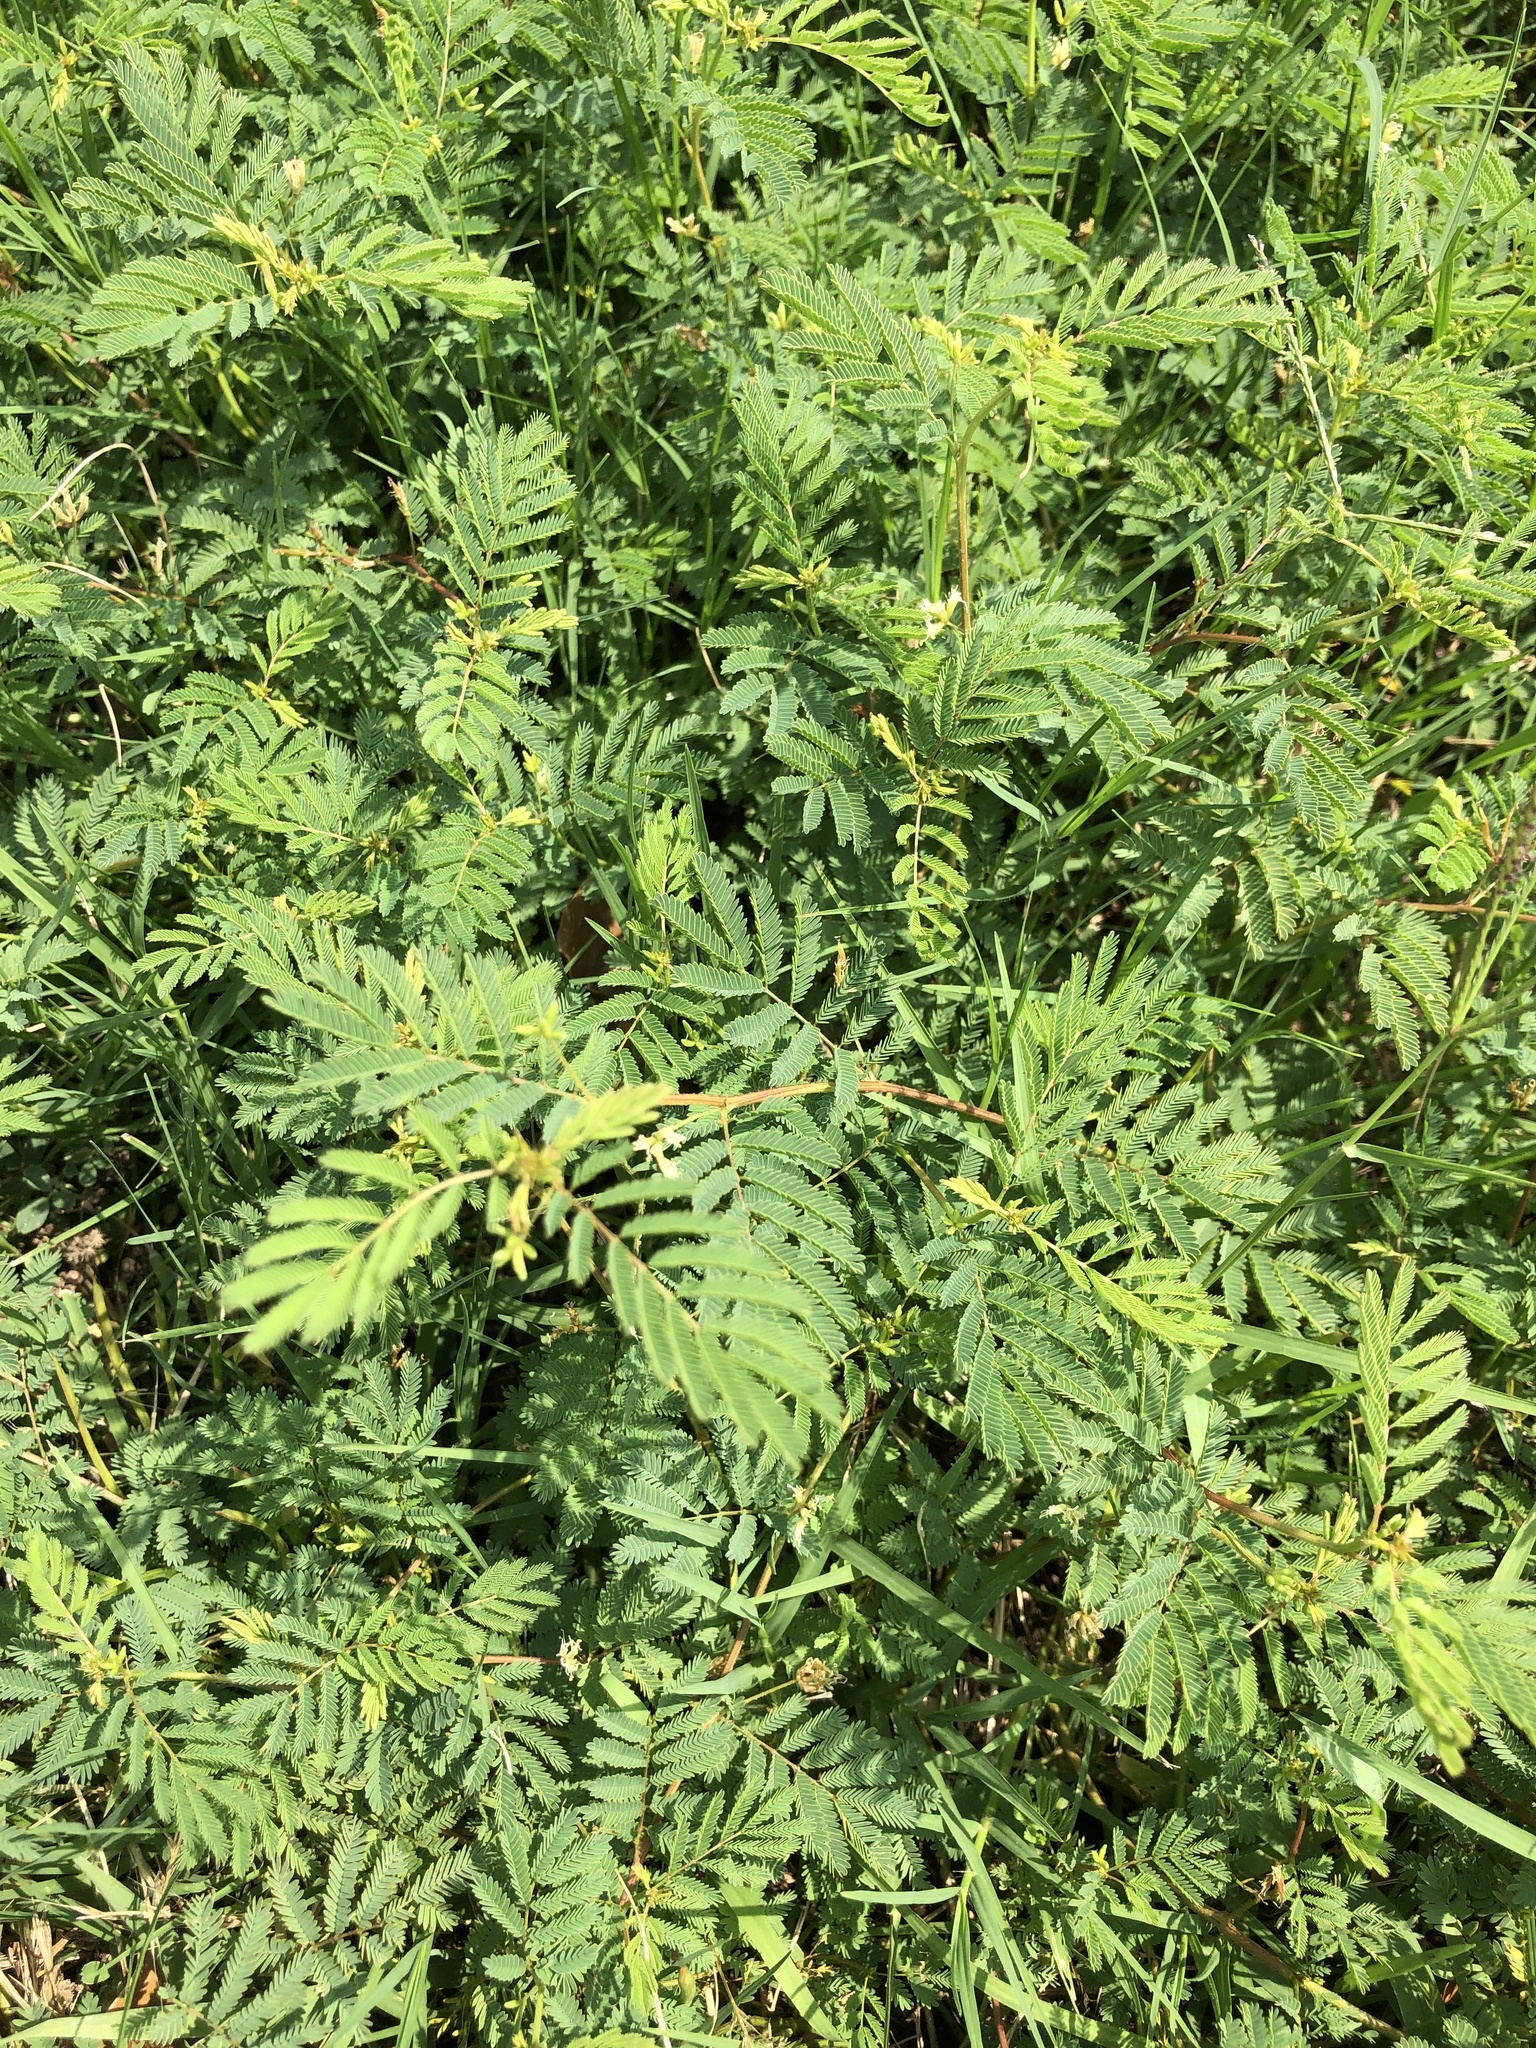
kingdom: Plantae
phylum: Tracheophyta
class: Magnoliopsida
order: Fabales
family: Fabaceae
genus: Desmanthus
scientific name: Desmanthus illinoensis
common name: Illinois bundle-flower
